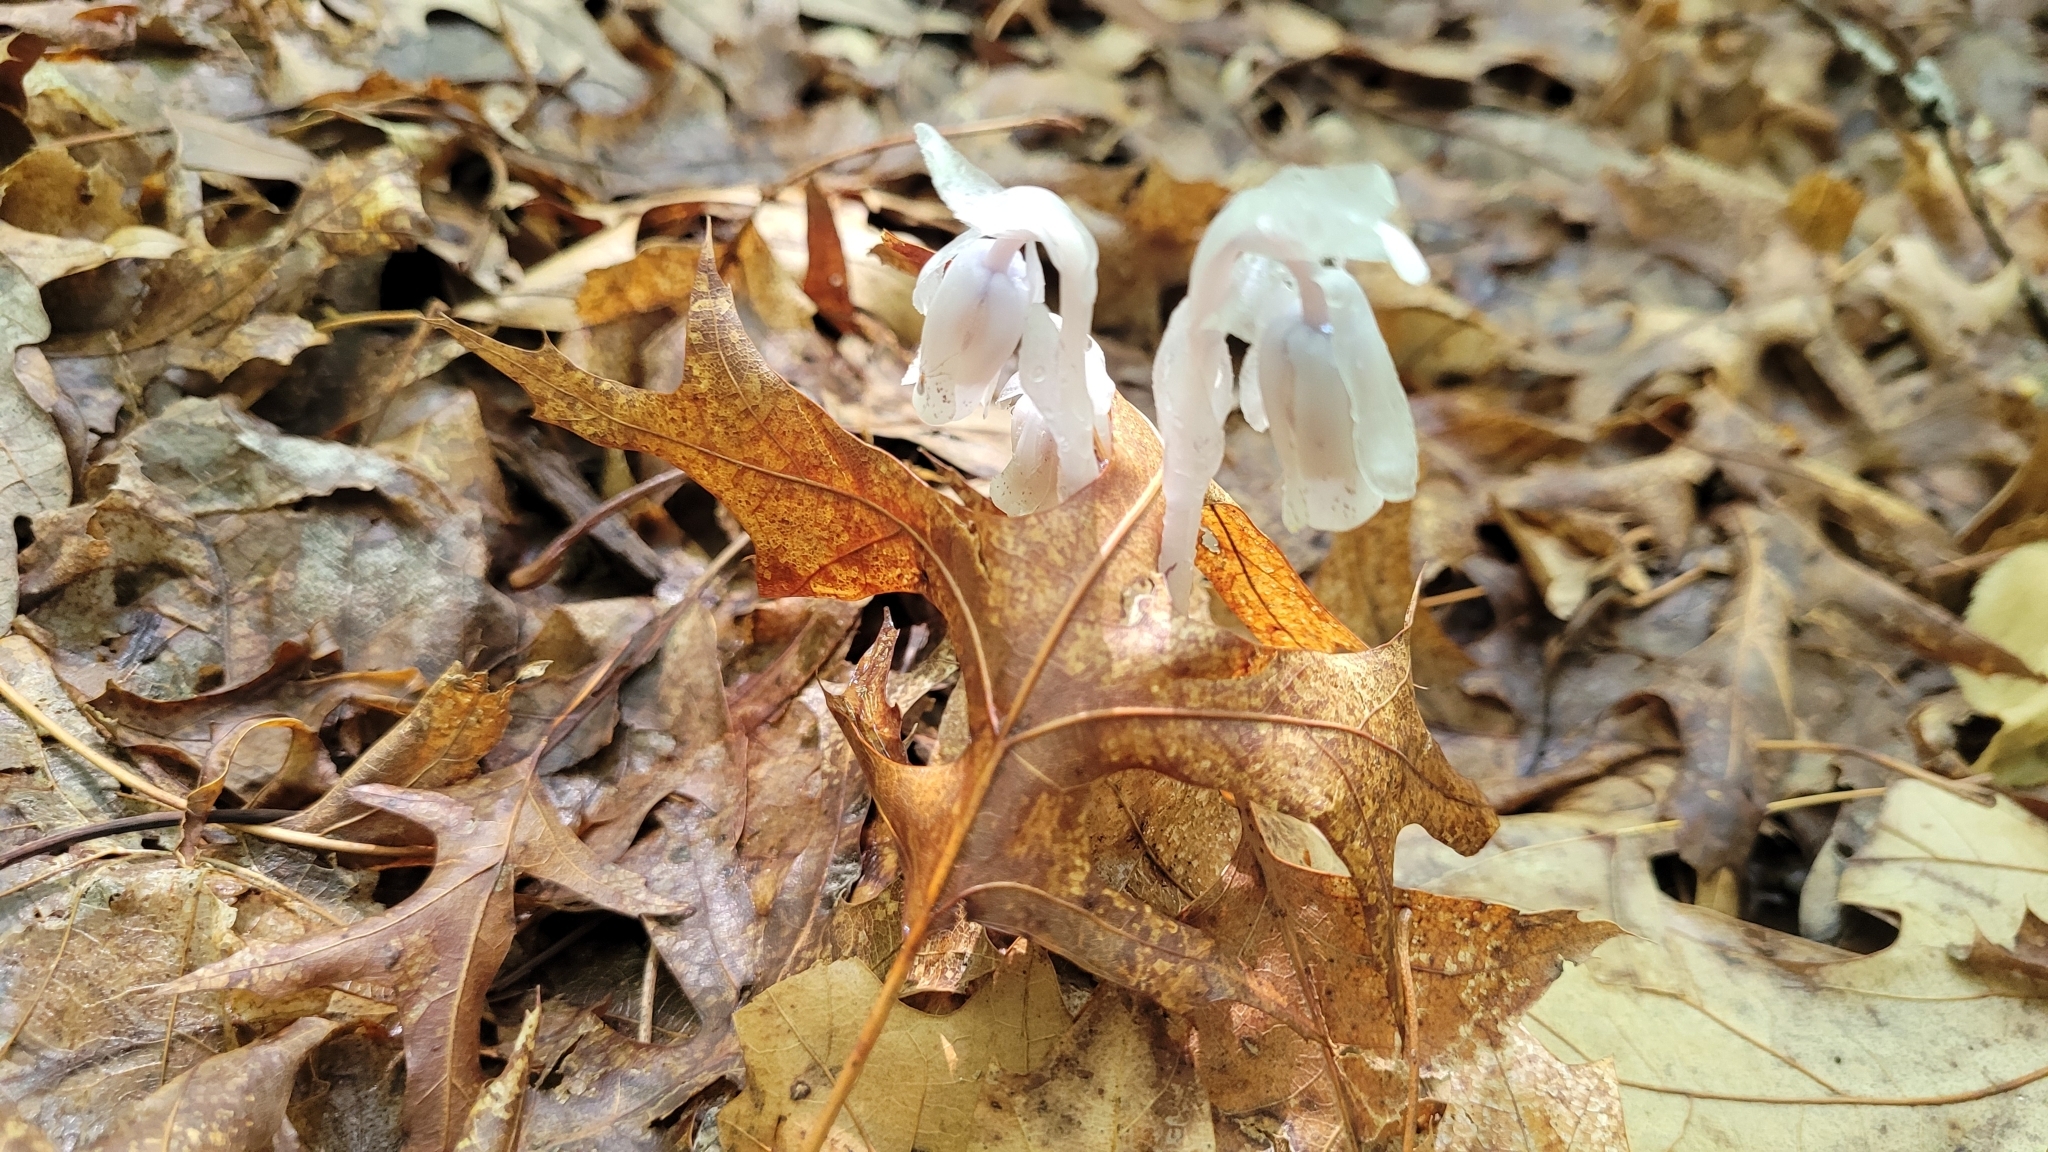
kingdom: Plantae
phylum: Tracheophyta
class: Magnoliopsida
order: Ericales
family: Ericaceae
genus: Monotropa
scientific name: Monotropa uniflora
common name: Convulsion root
